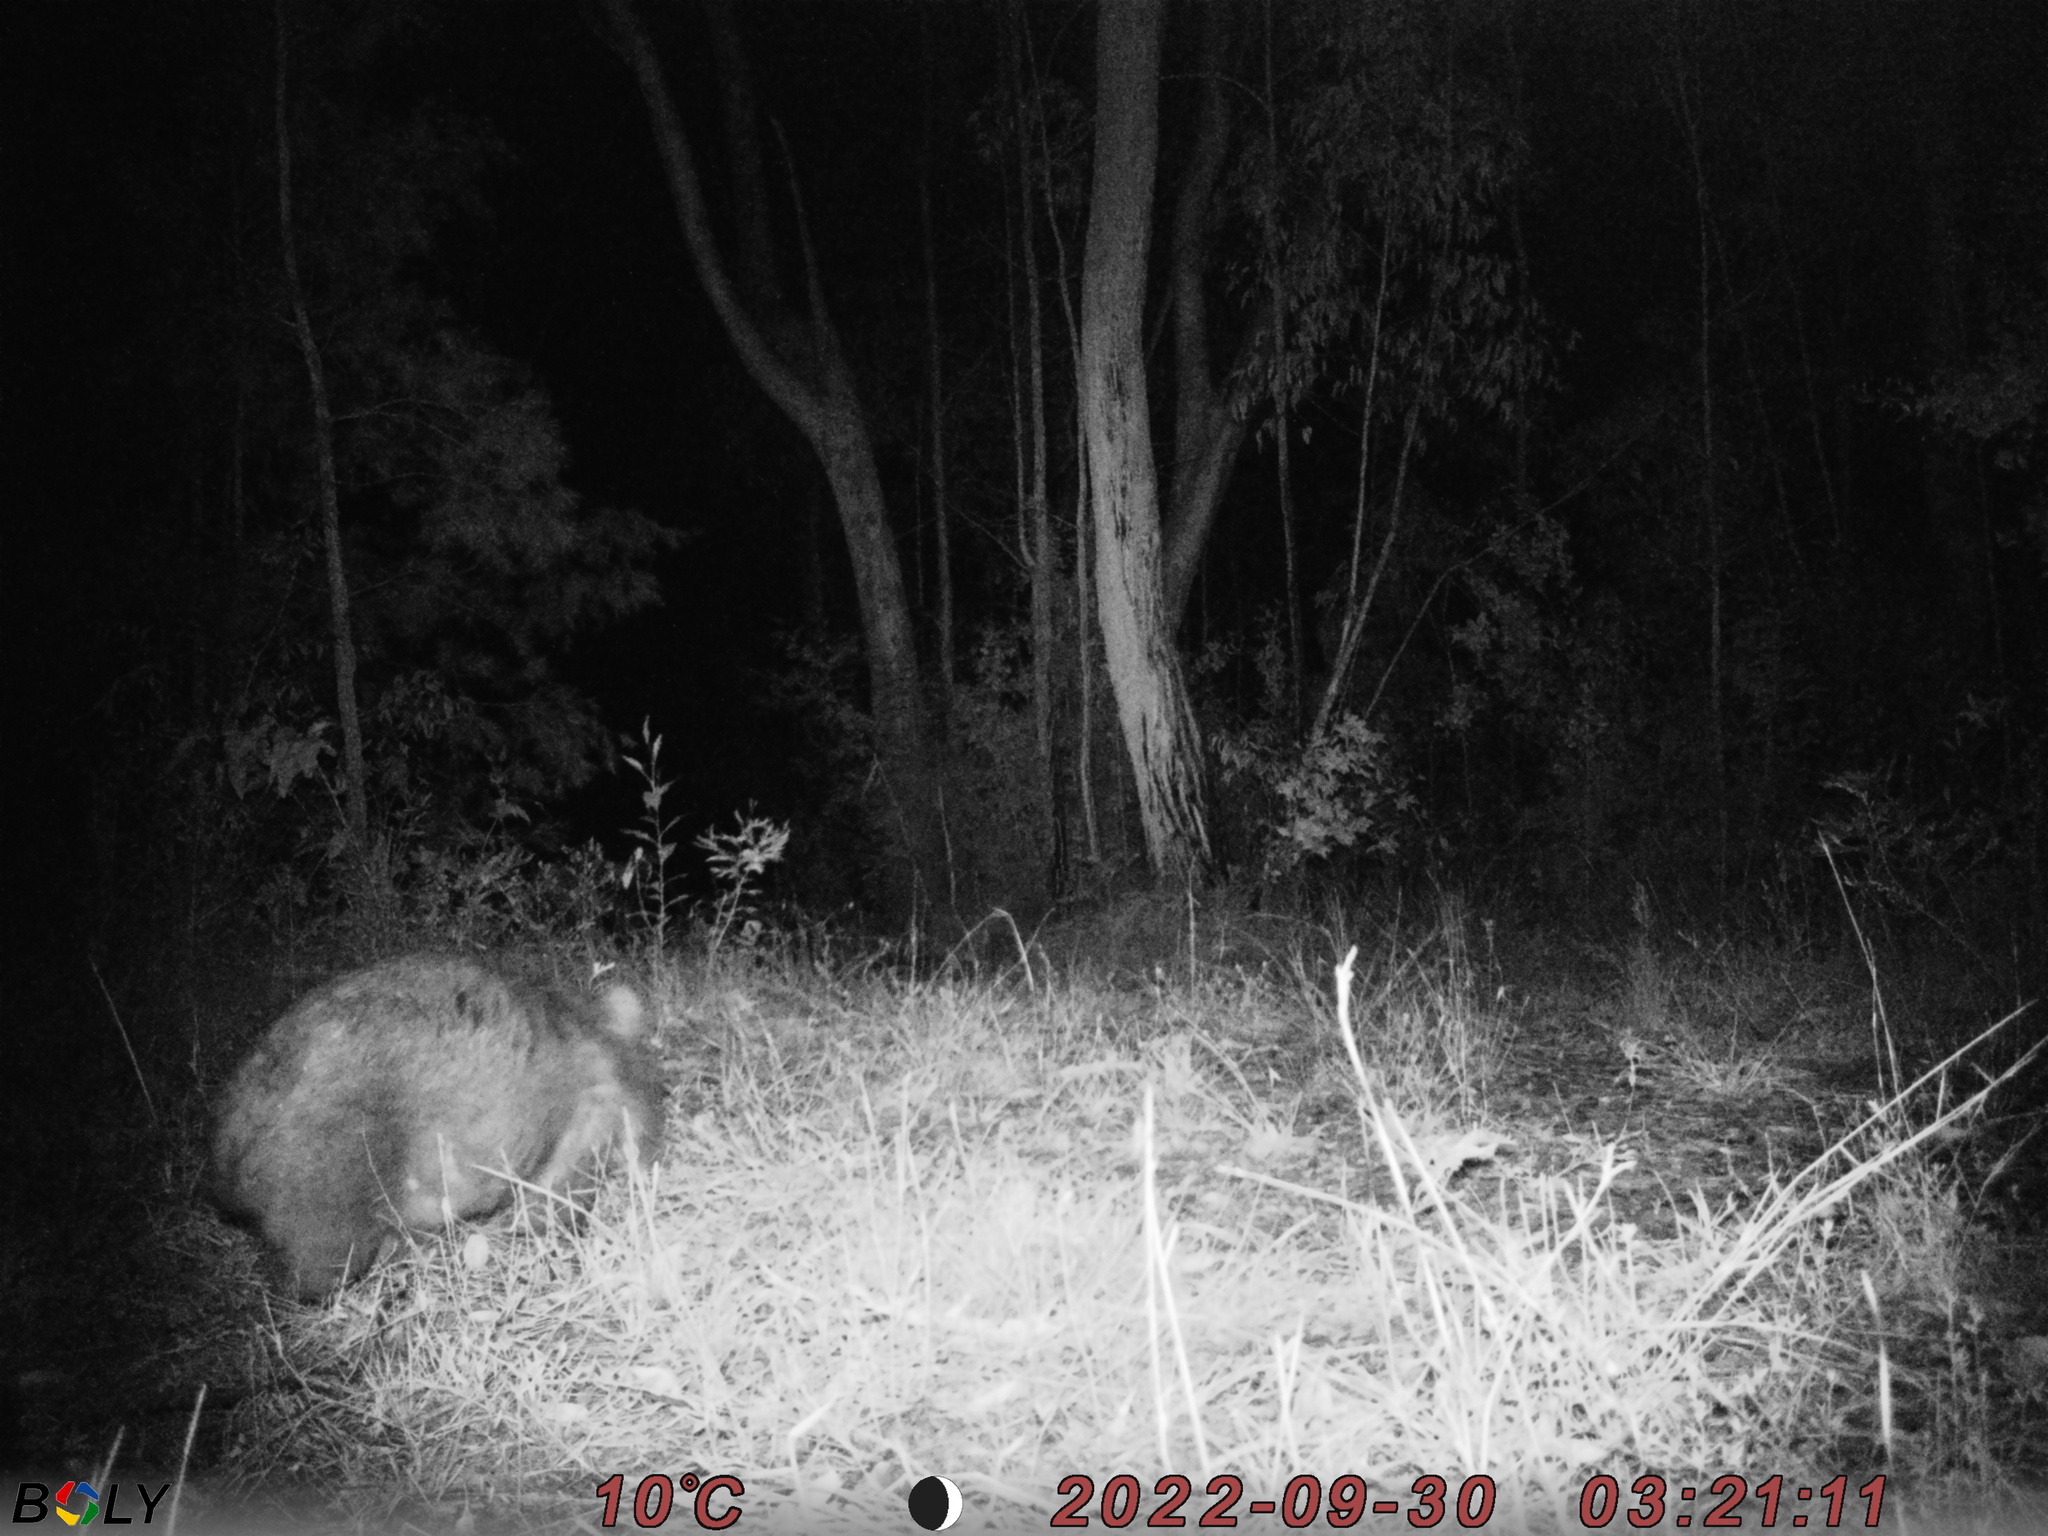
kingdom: Animalia
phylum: Chordata
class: Mammalia
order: Diprotodontia
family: Vombatidae
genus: Vombatus
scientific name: Vombatus ursinus
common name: Common wombat
